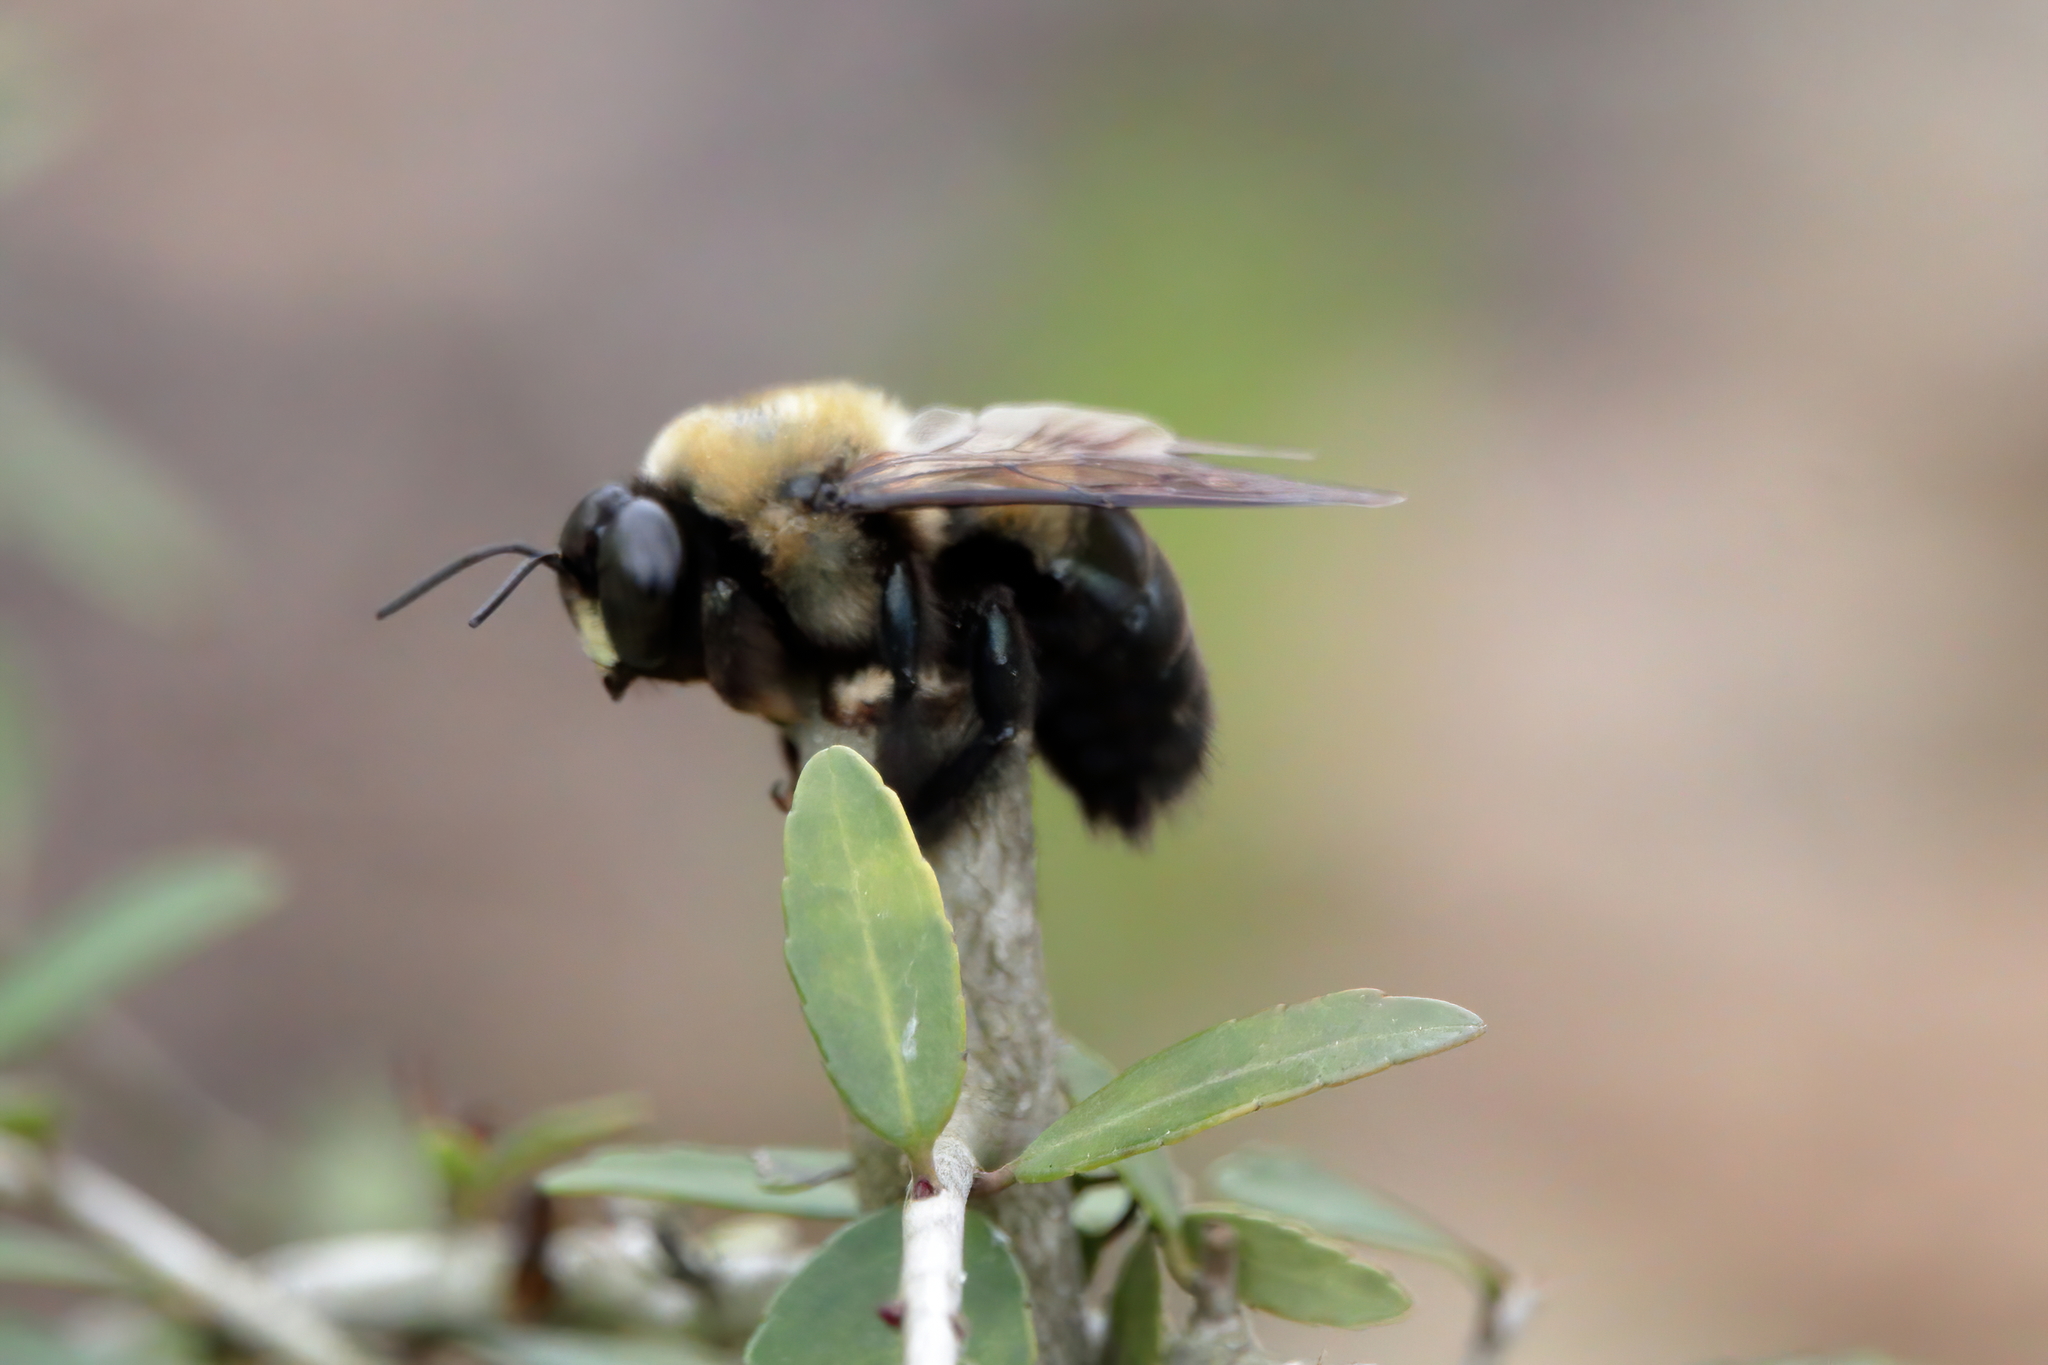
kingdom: Animalia
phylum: Arthropoda
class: Insecta
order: Hymenoptera
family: Apidae
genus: Xylocopa
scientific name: Xylocopa virginica
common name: Carpenter bee
